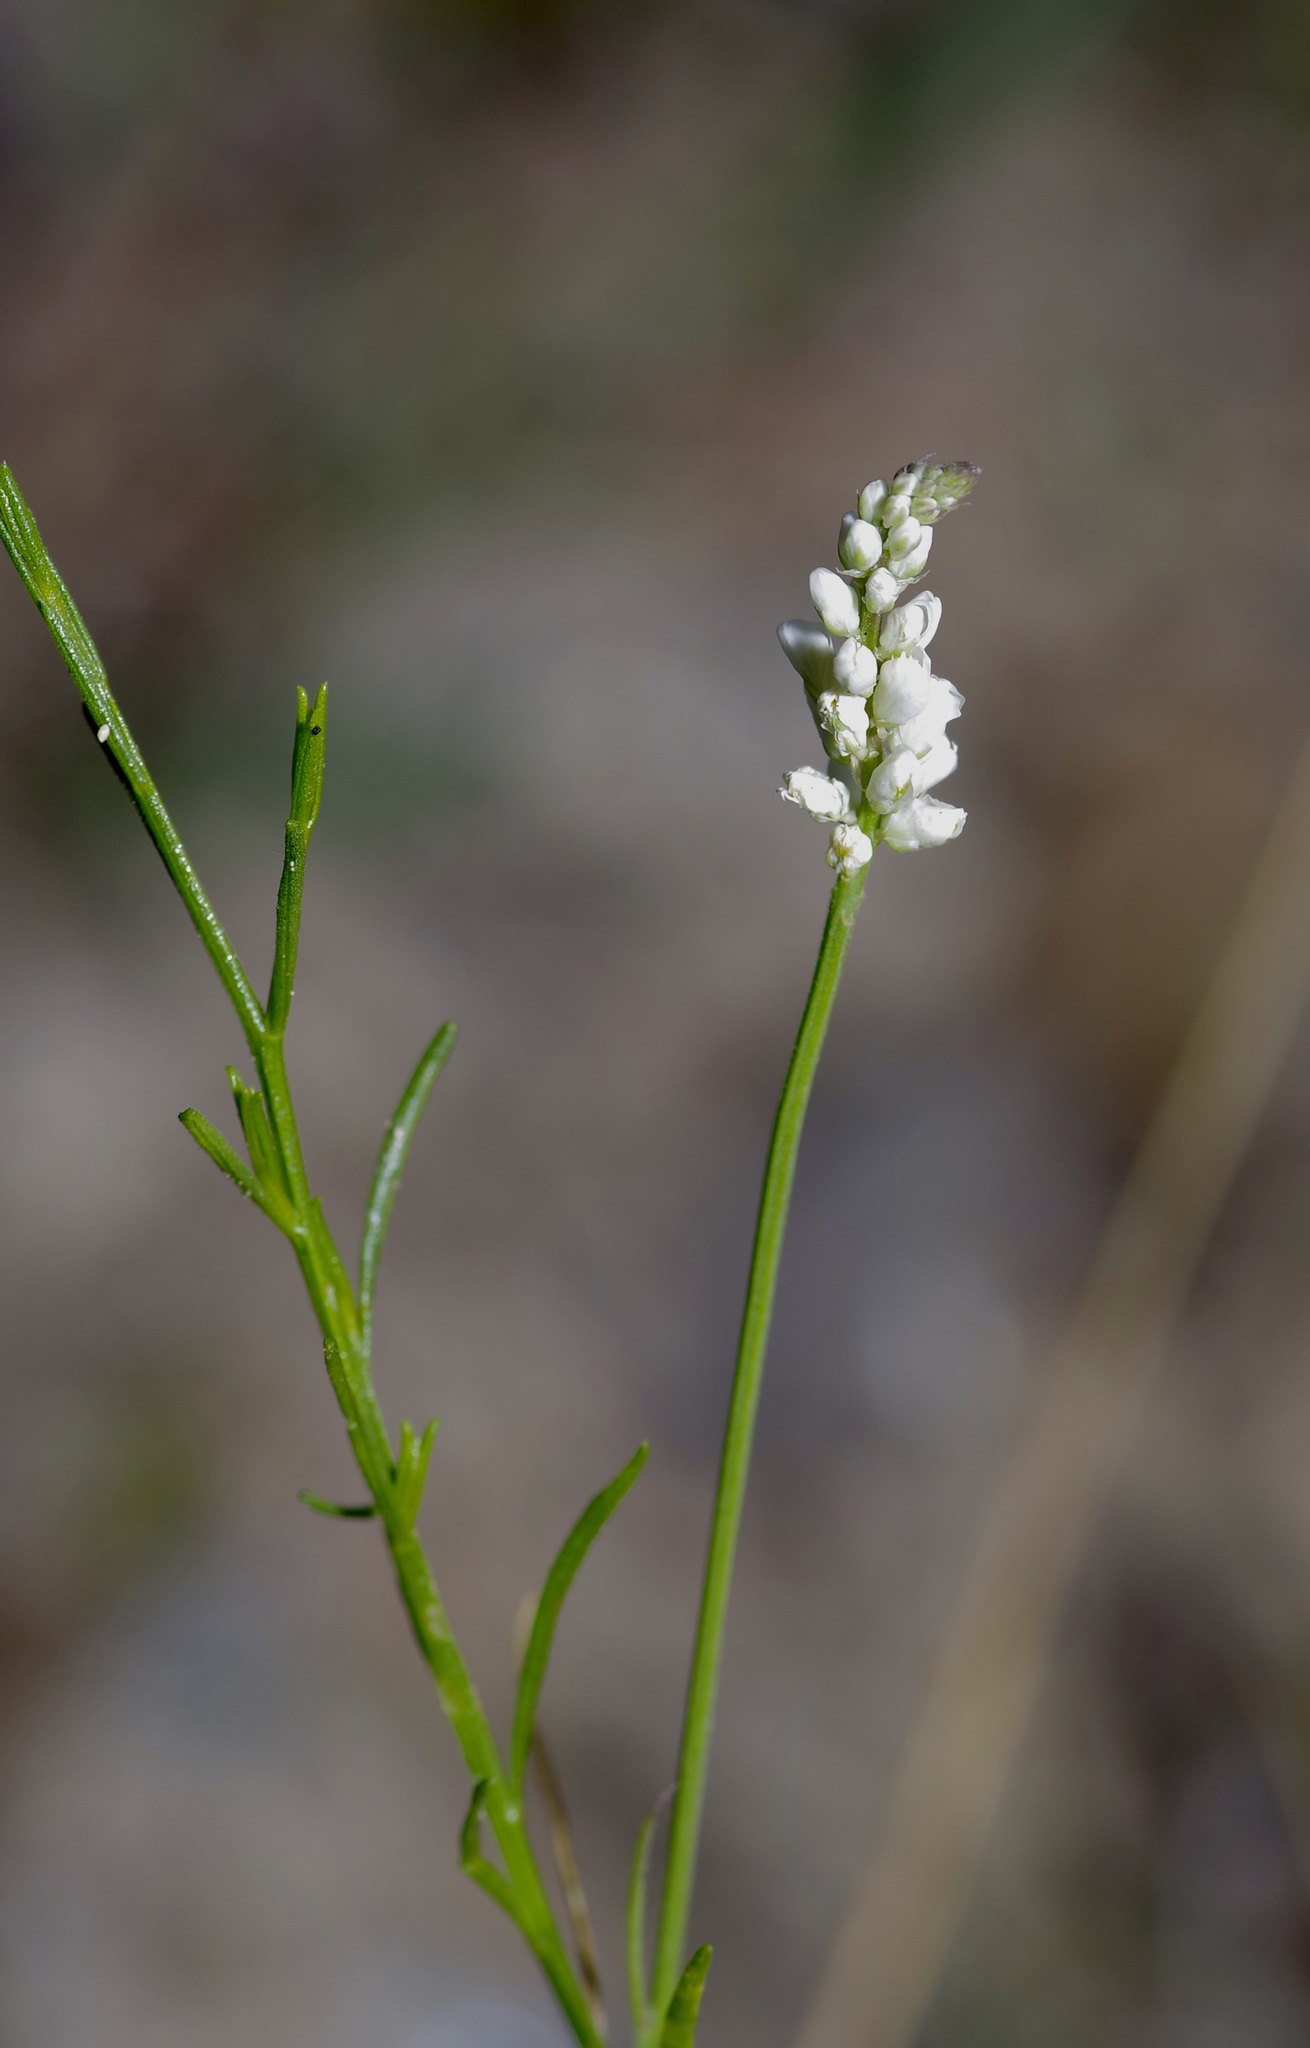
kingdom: Plantae
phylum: Tracheophyta
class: Magnoliopsida
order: Fabales
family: Polygalaceae
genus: Polygala
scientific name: Polygala alba
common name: White milkwort
